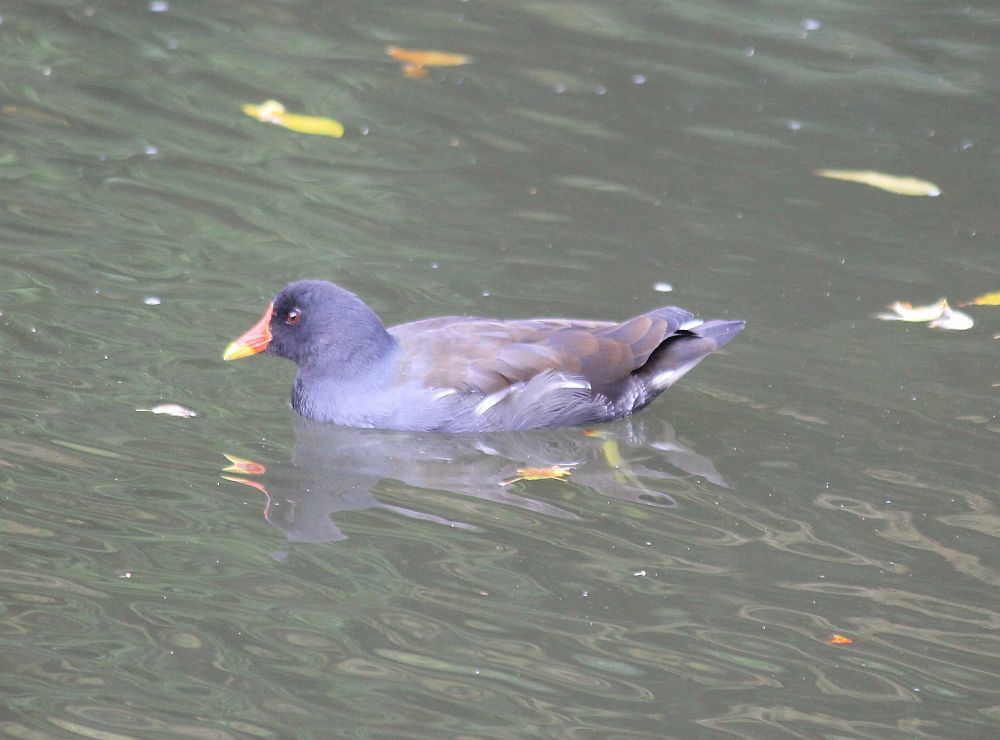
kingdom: Animalia
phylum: Chordata
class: Aves
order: Gruiformes
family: Rallidae
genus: Gallinula
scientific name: Gallinula chloropus
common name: Common moorhen
